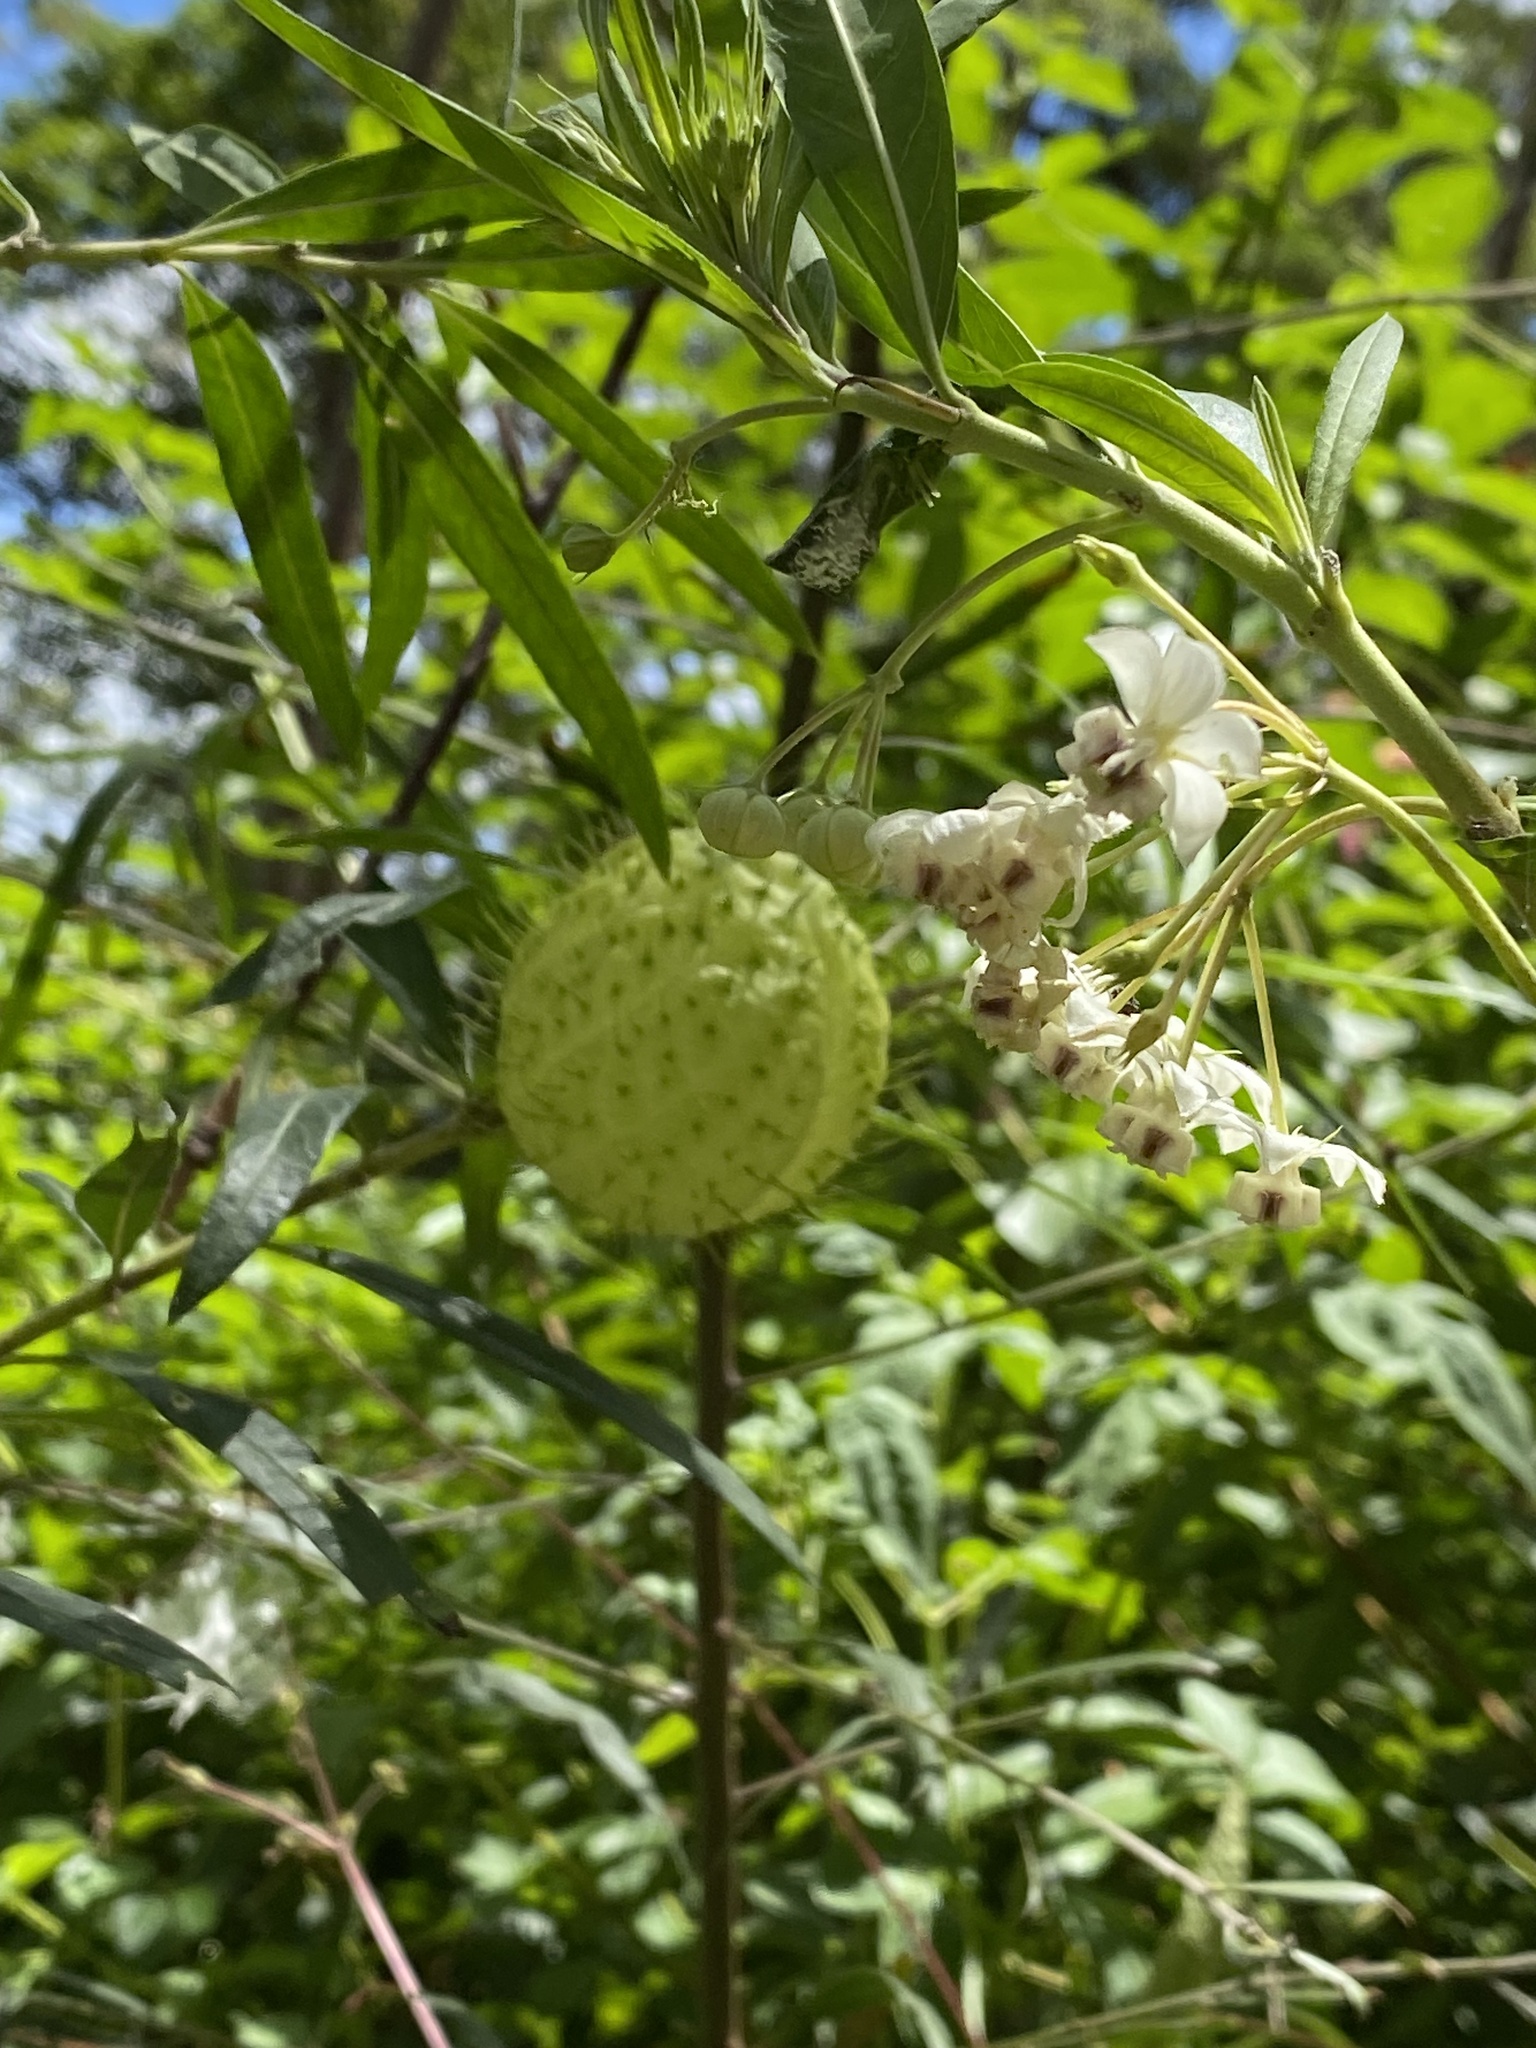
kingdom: Plantae
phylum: Tracheophyta
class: Magnoliopsida
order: Gentianales
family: Apocynaceae
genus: Gomphocarpus
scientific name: Gomphocarpus physocarpus
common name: Balloon cotton bush
